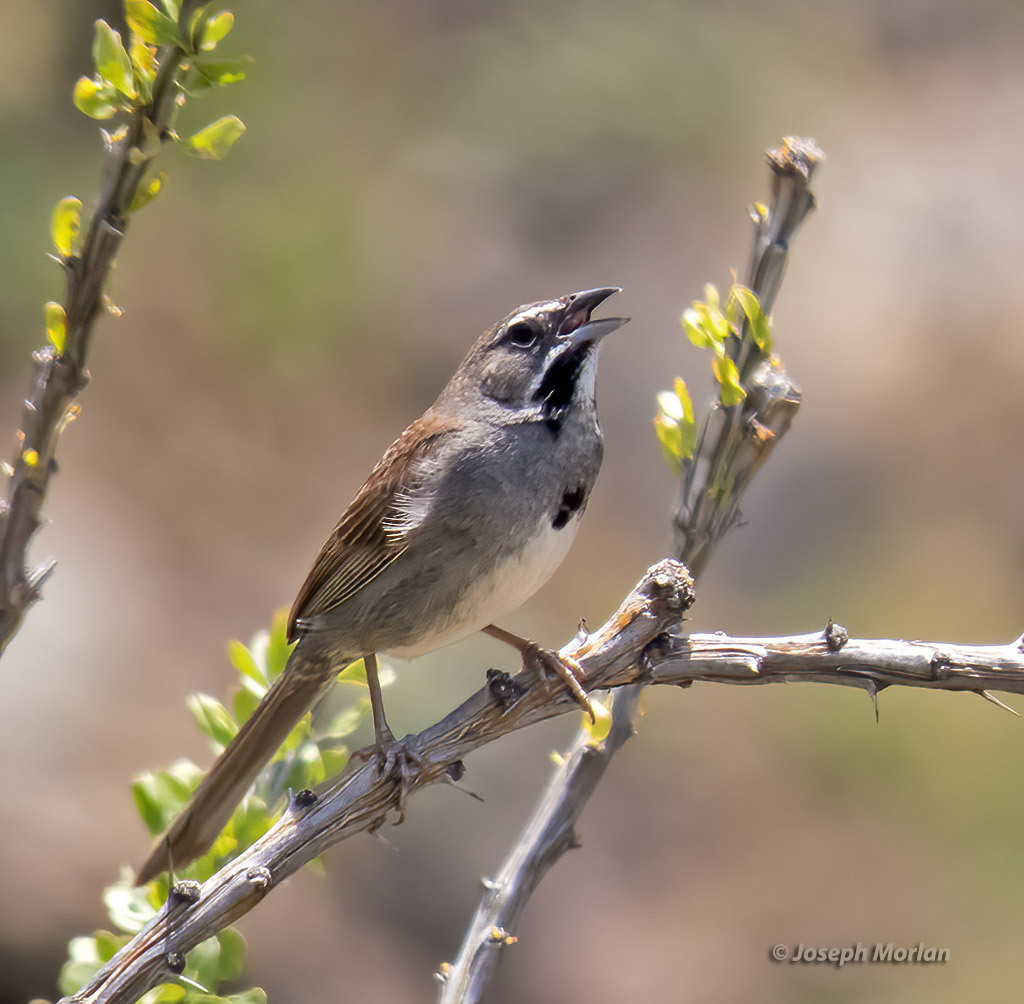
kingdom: Animalia
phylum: Chordata
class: Aves
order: Passeriformes
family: Passerellidae
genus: Amphispizopsis
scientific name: Amphispizopsis quinquestriata
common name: Five-striped sparrow
